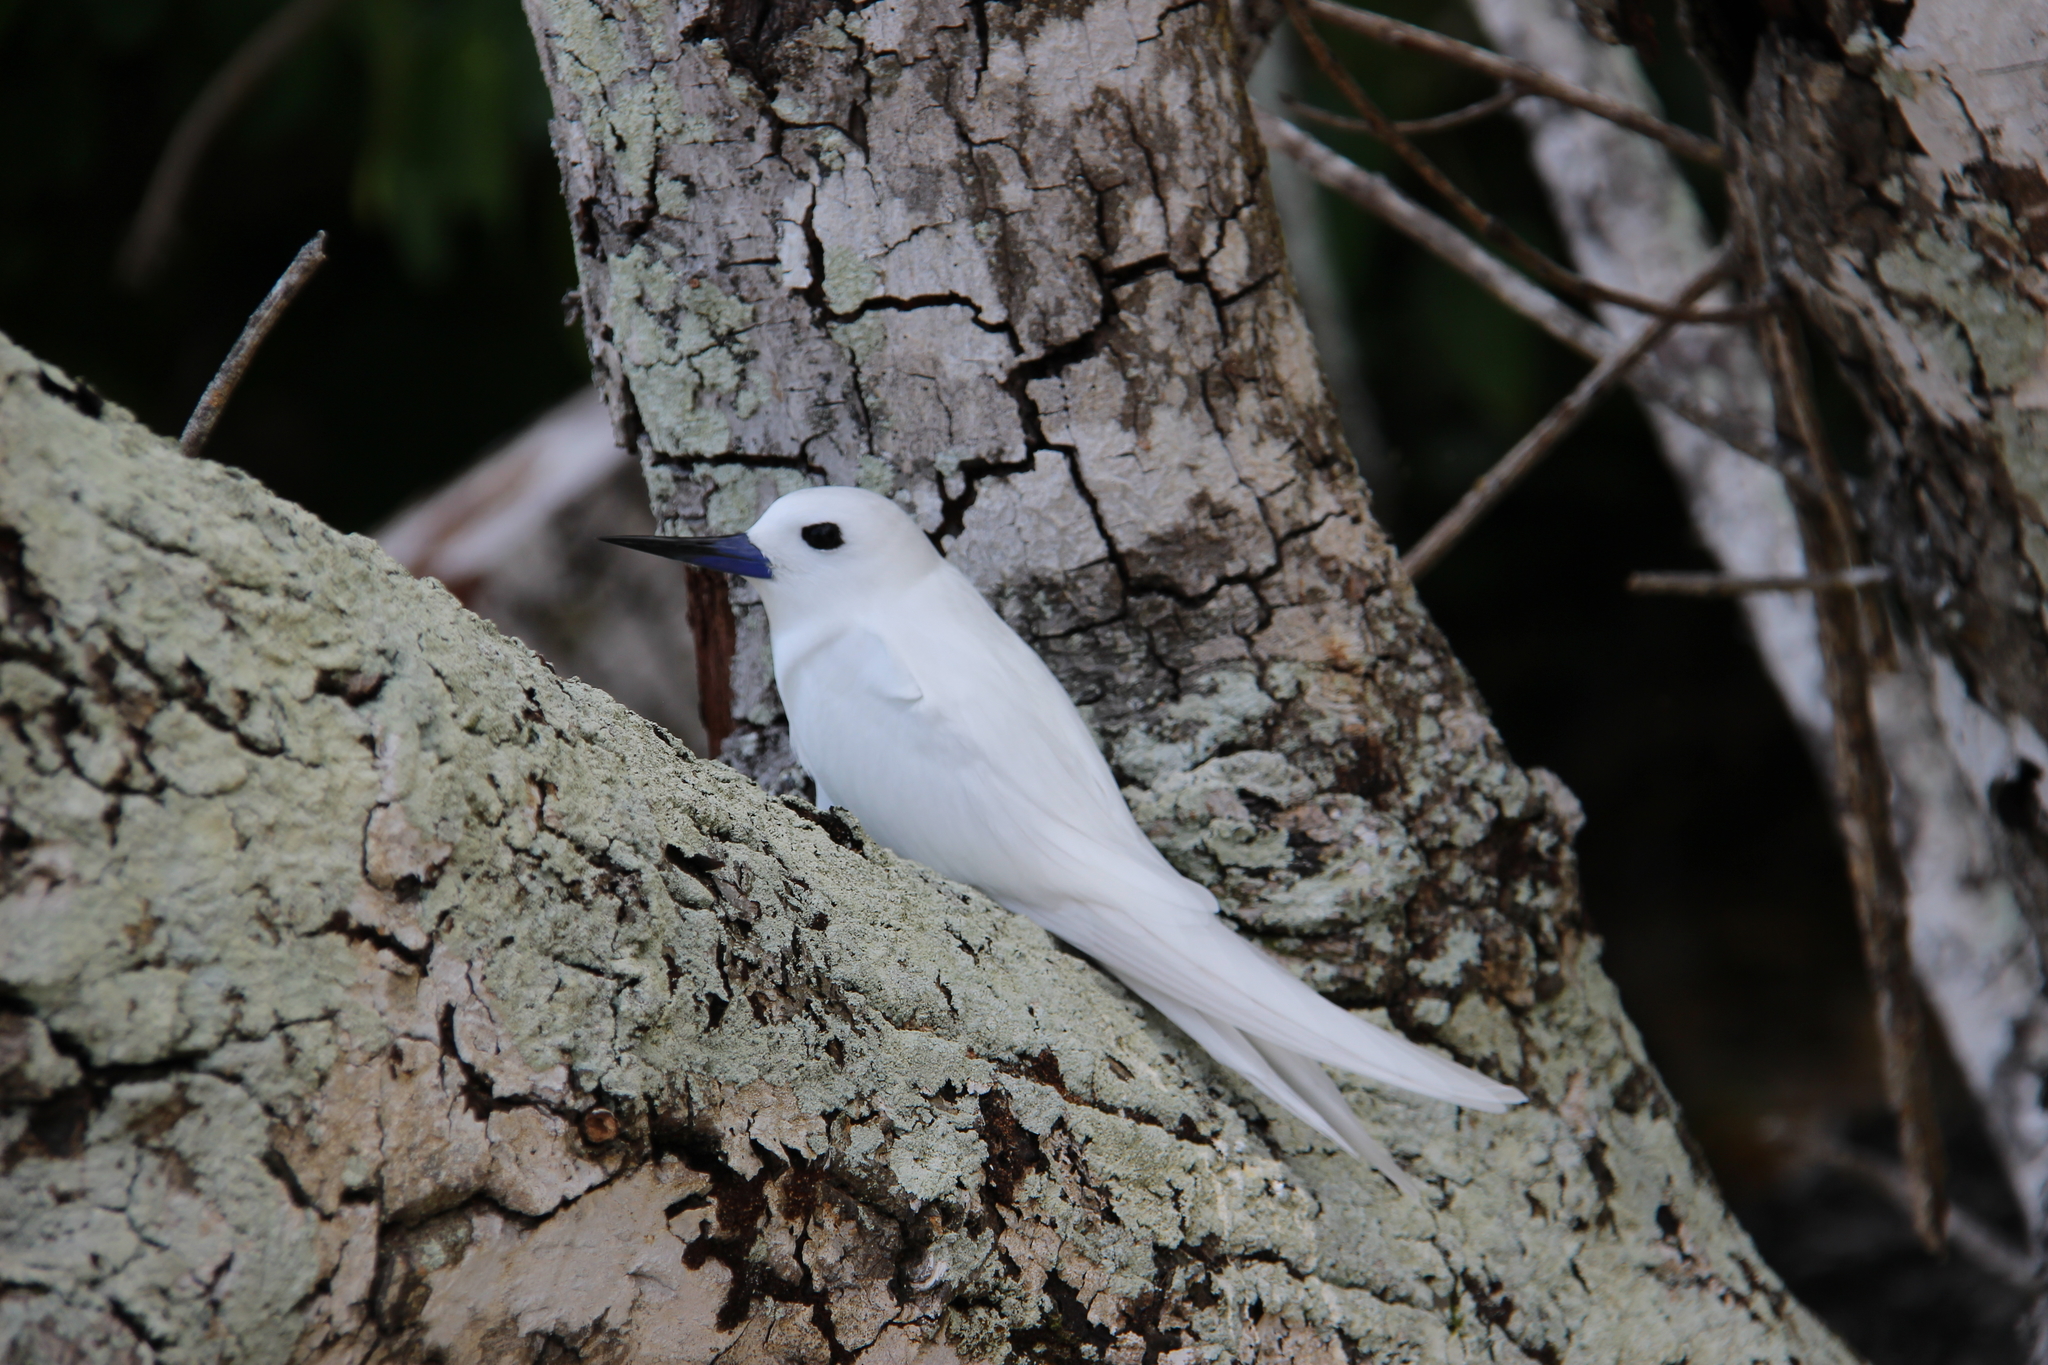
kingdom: Animalia
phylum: Chordata
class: Aves
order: Charadriiformes
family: Laridae
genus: Gygis
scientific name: Gygis alba
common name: White tern
